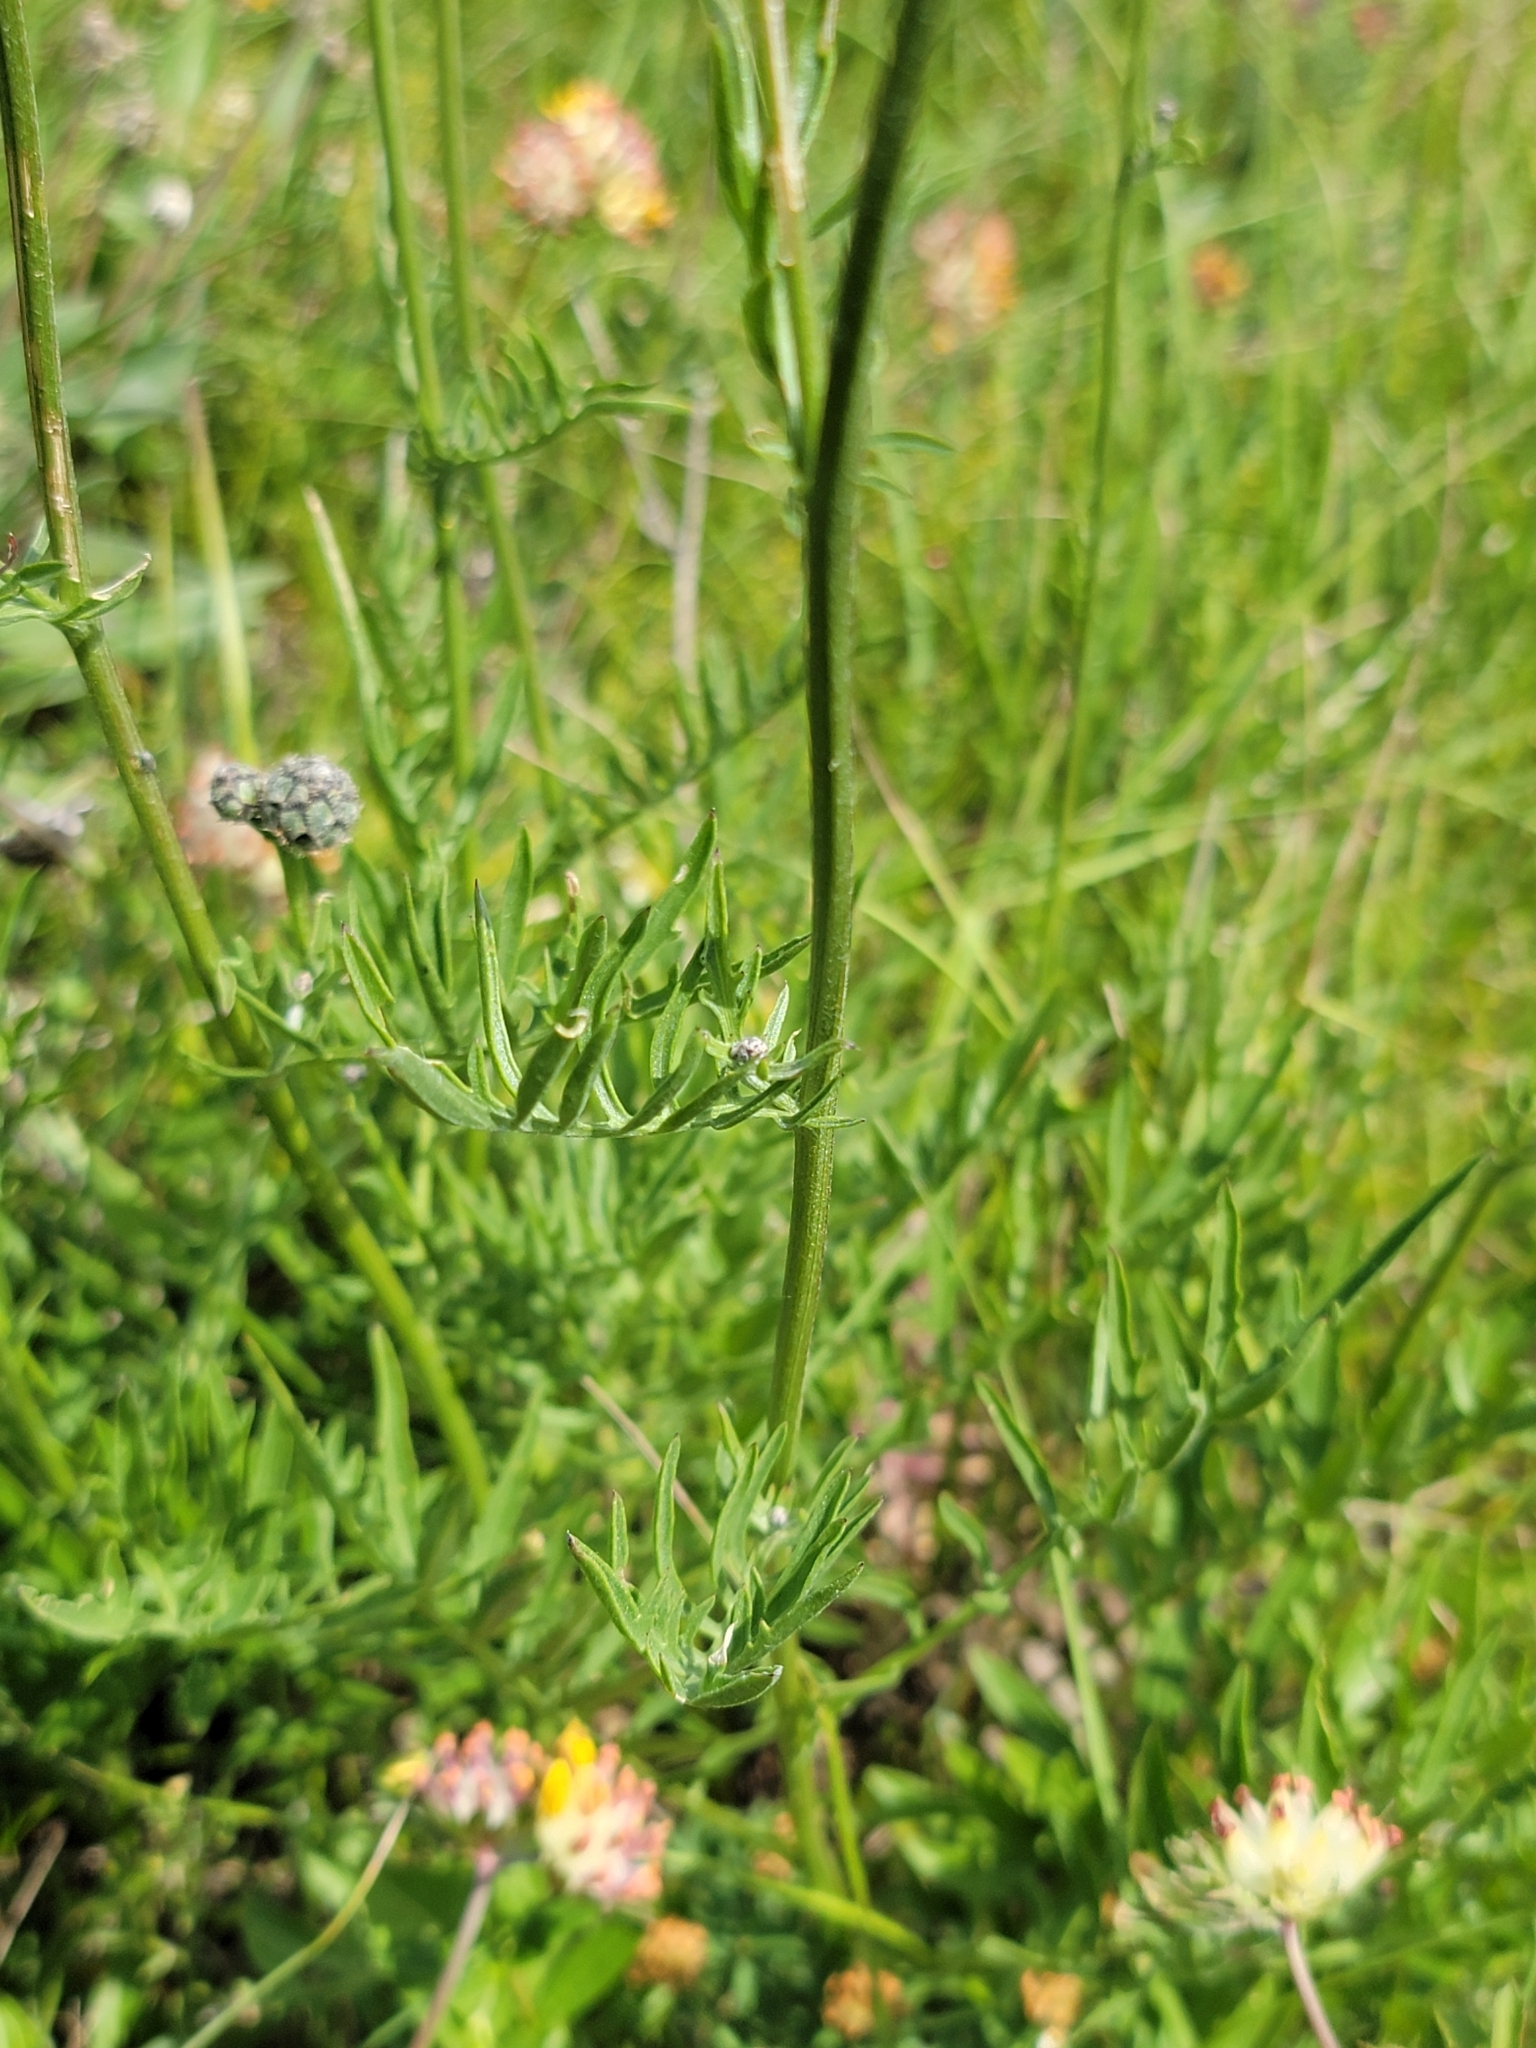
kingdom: Plantae
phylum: Tracheophyta
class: Magnoliopsida
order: Asterales
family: Asteraceae
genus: Centaurea
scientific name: Centaurea scabiosa
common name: Greater knapweed
